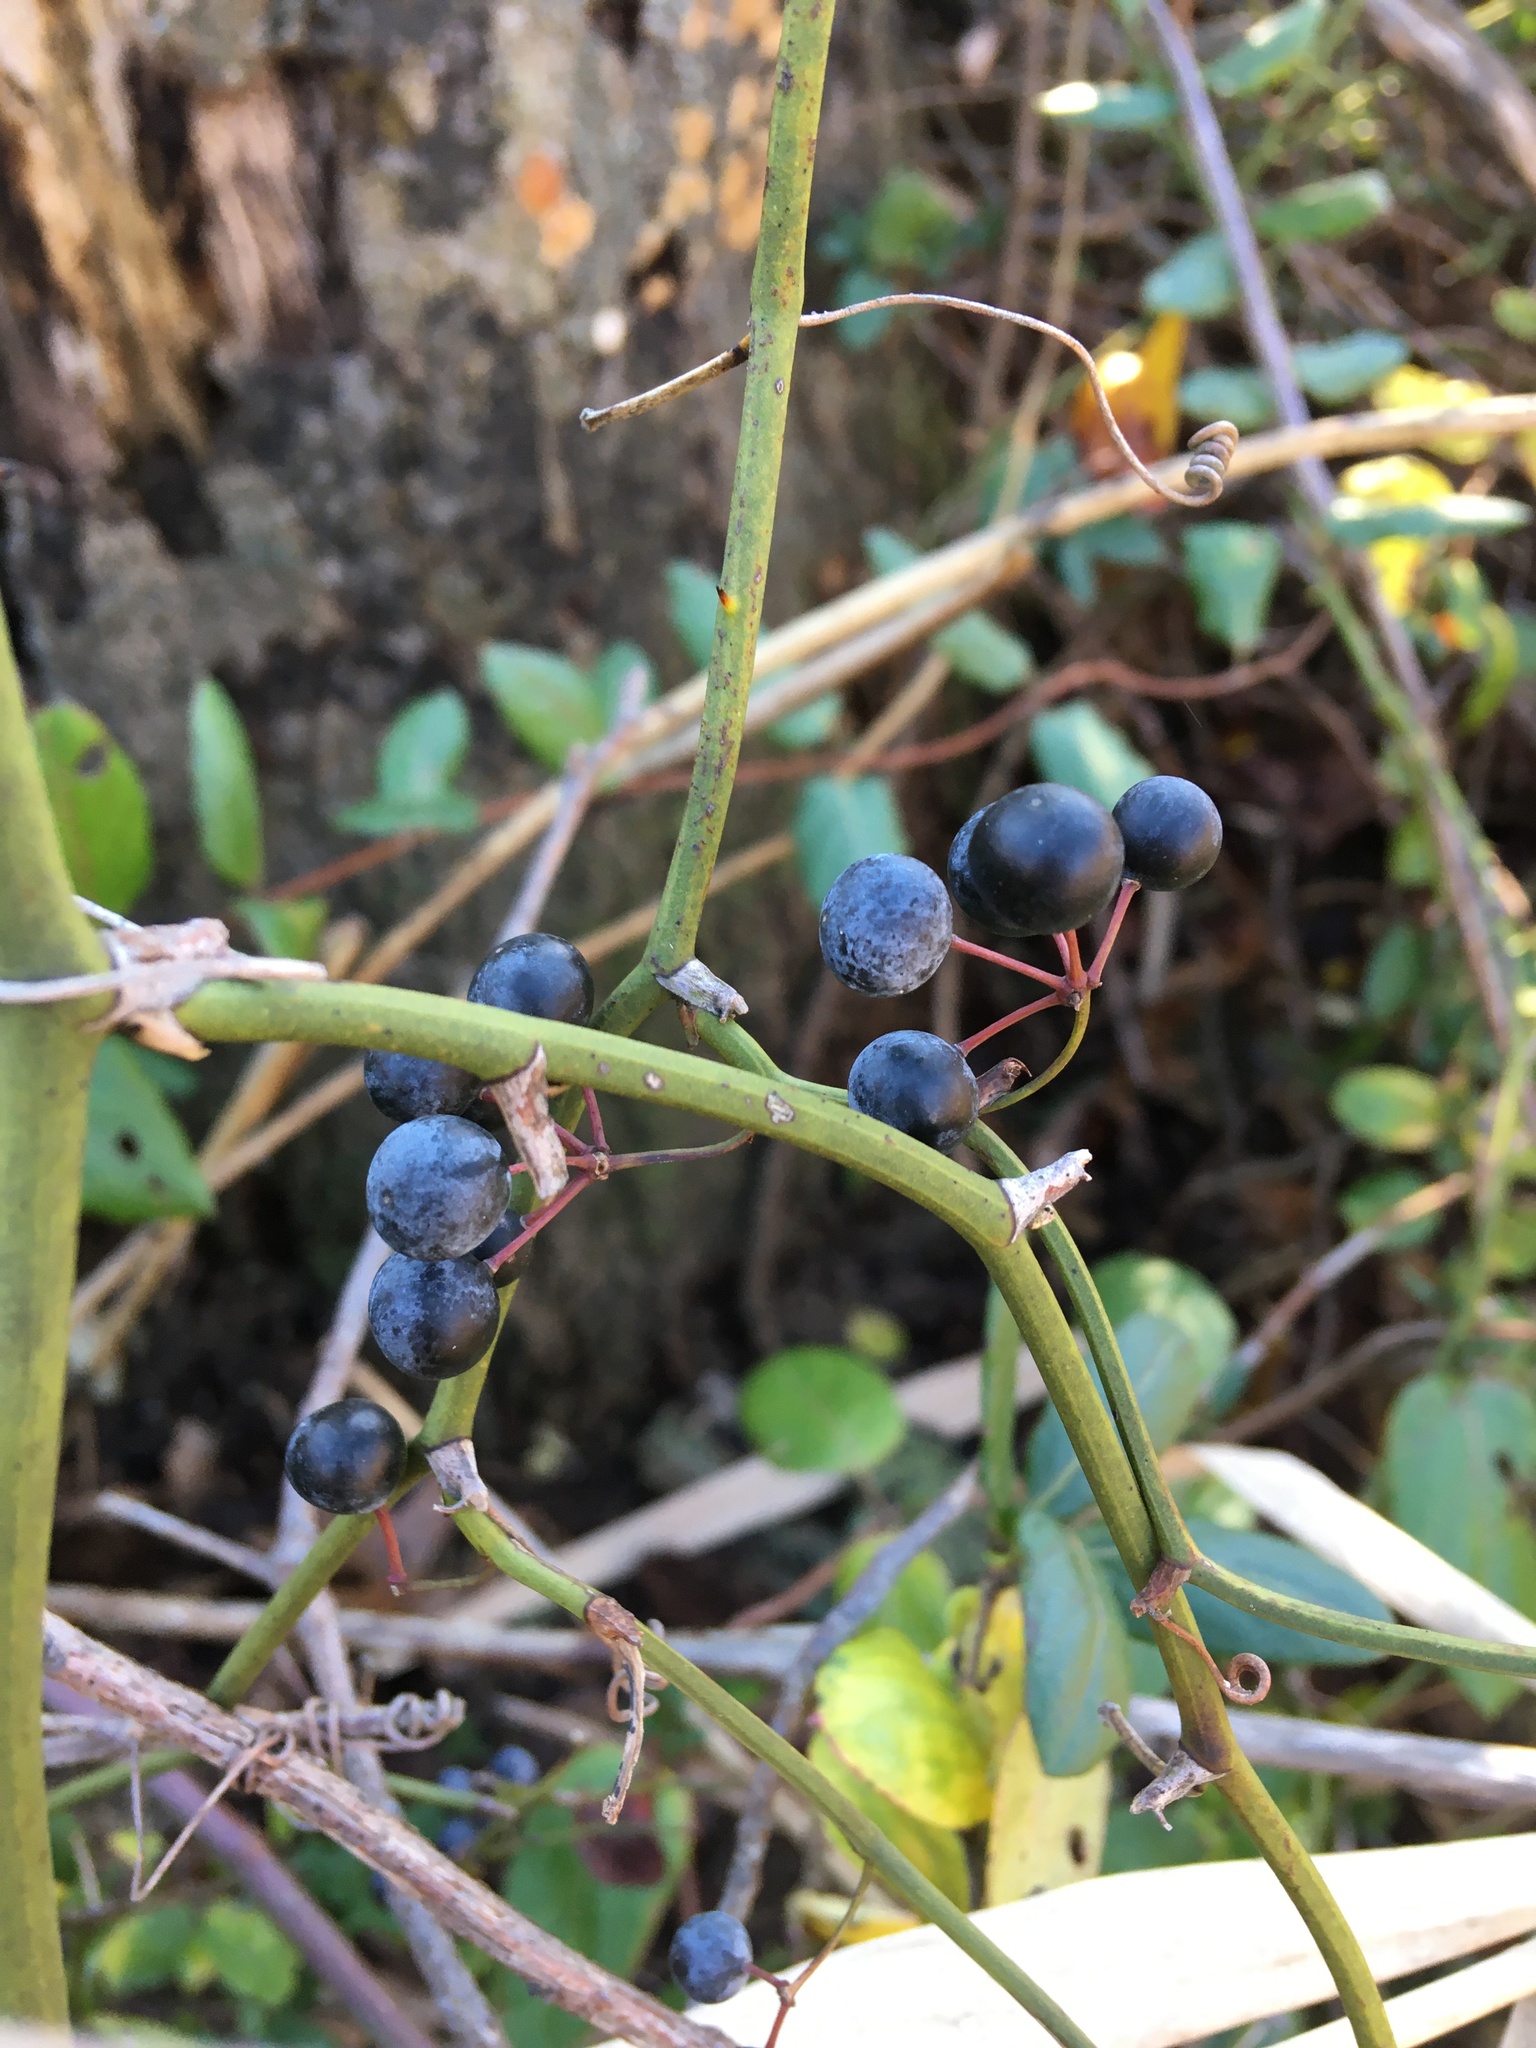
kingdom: Plantae
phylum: Tracheophyta
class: Liliopsida
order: Liliales
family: Smilacaceae
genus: Smilax
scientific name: Smilax rotundifolia
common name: Bullbriar
